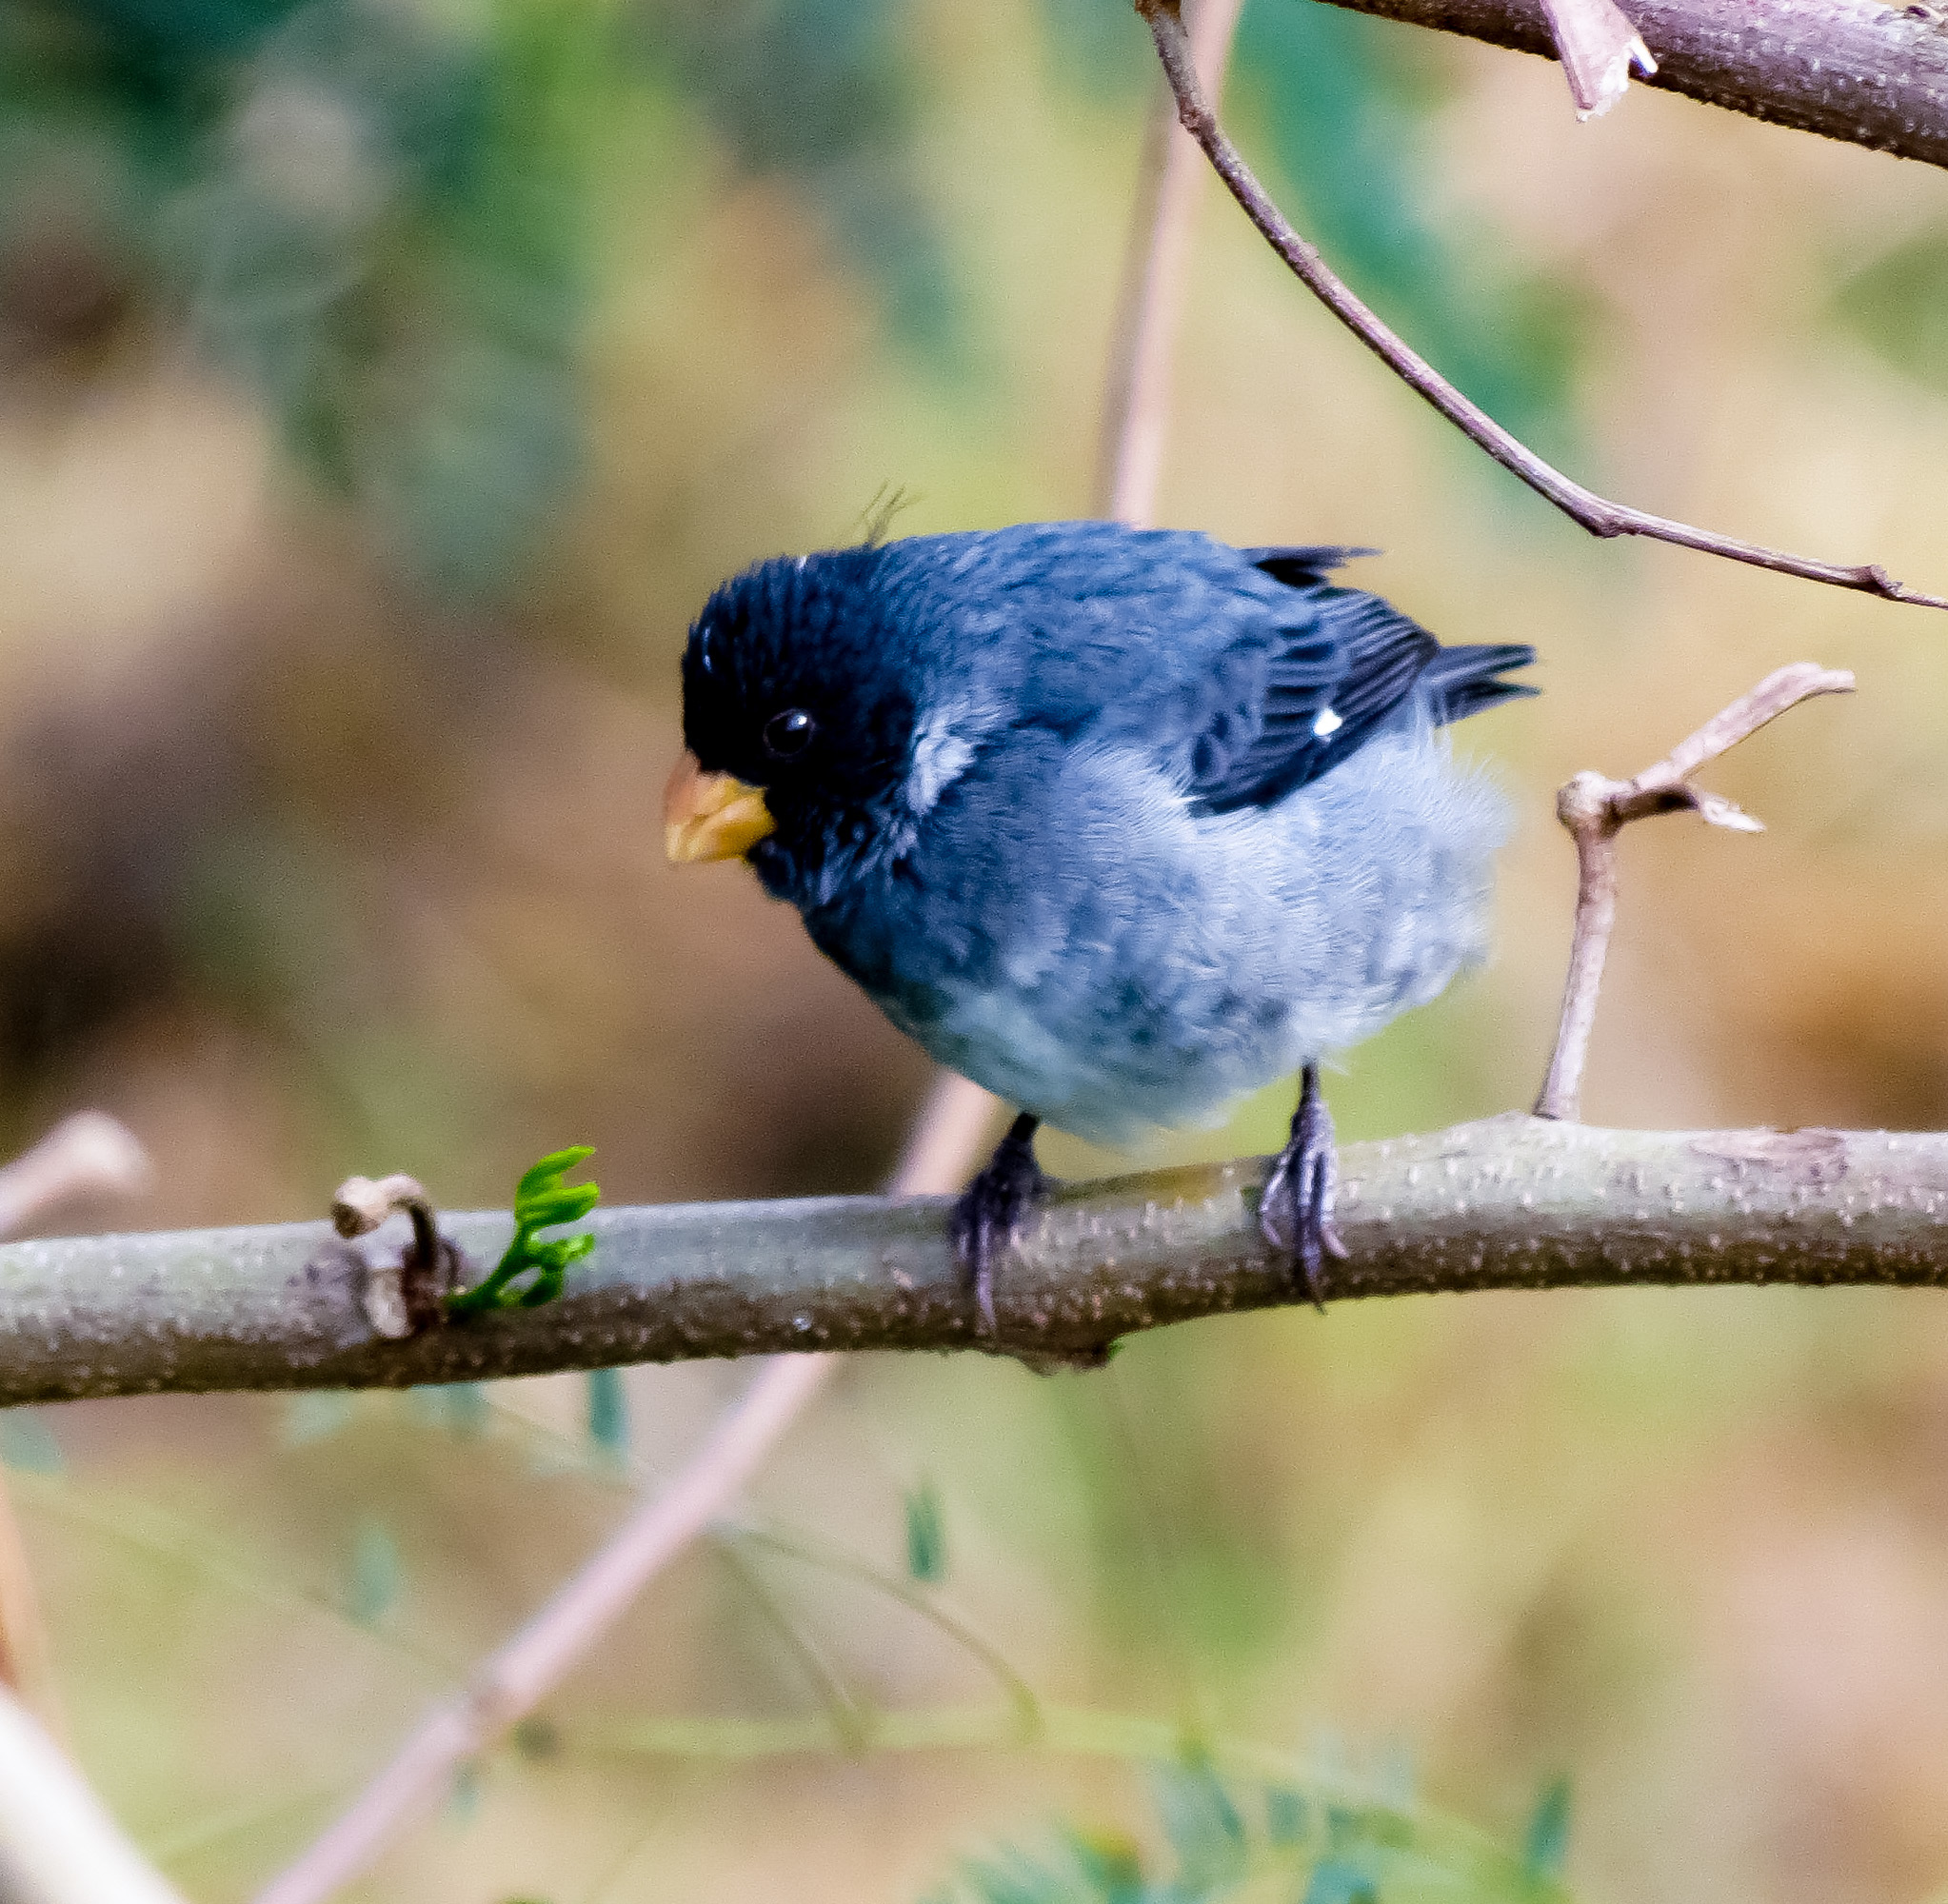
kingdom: Animalia
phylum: Chordata
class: Aves
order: Passeriformes
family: Thraupidae
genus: Sporophila
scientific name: Sporophila intermedia
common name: Grey seedeater
